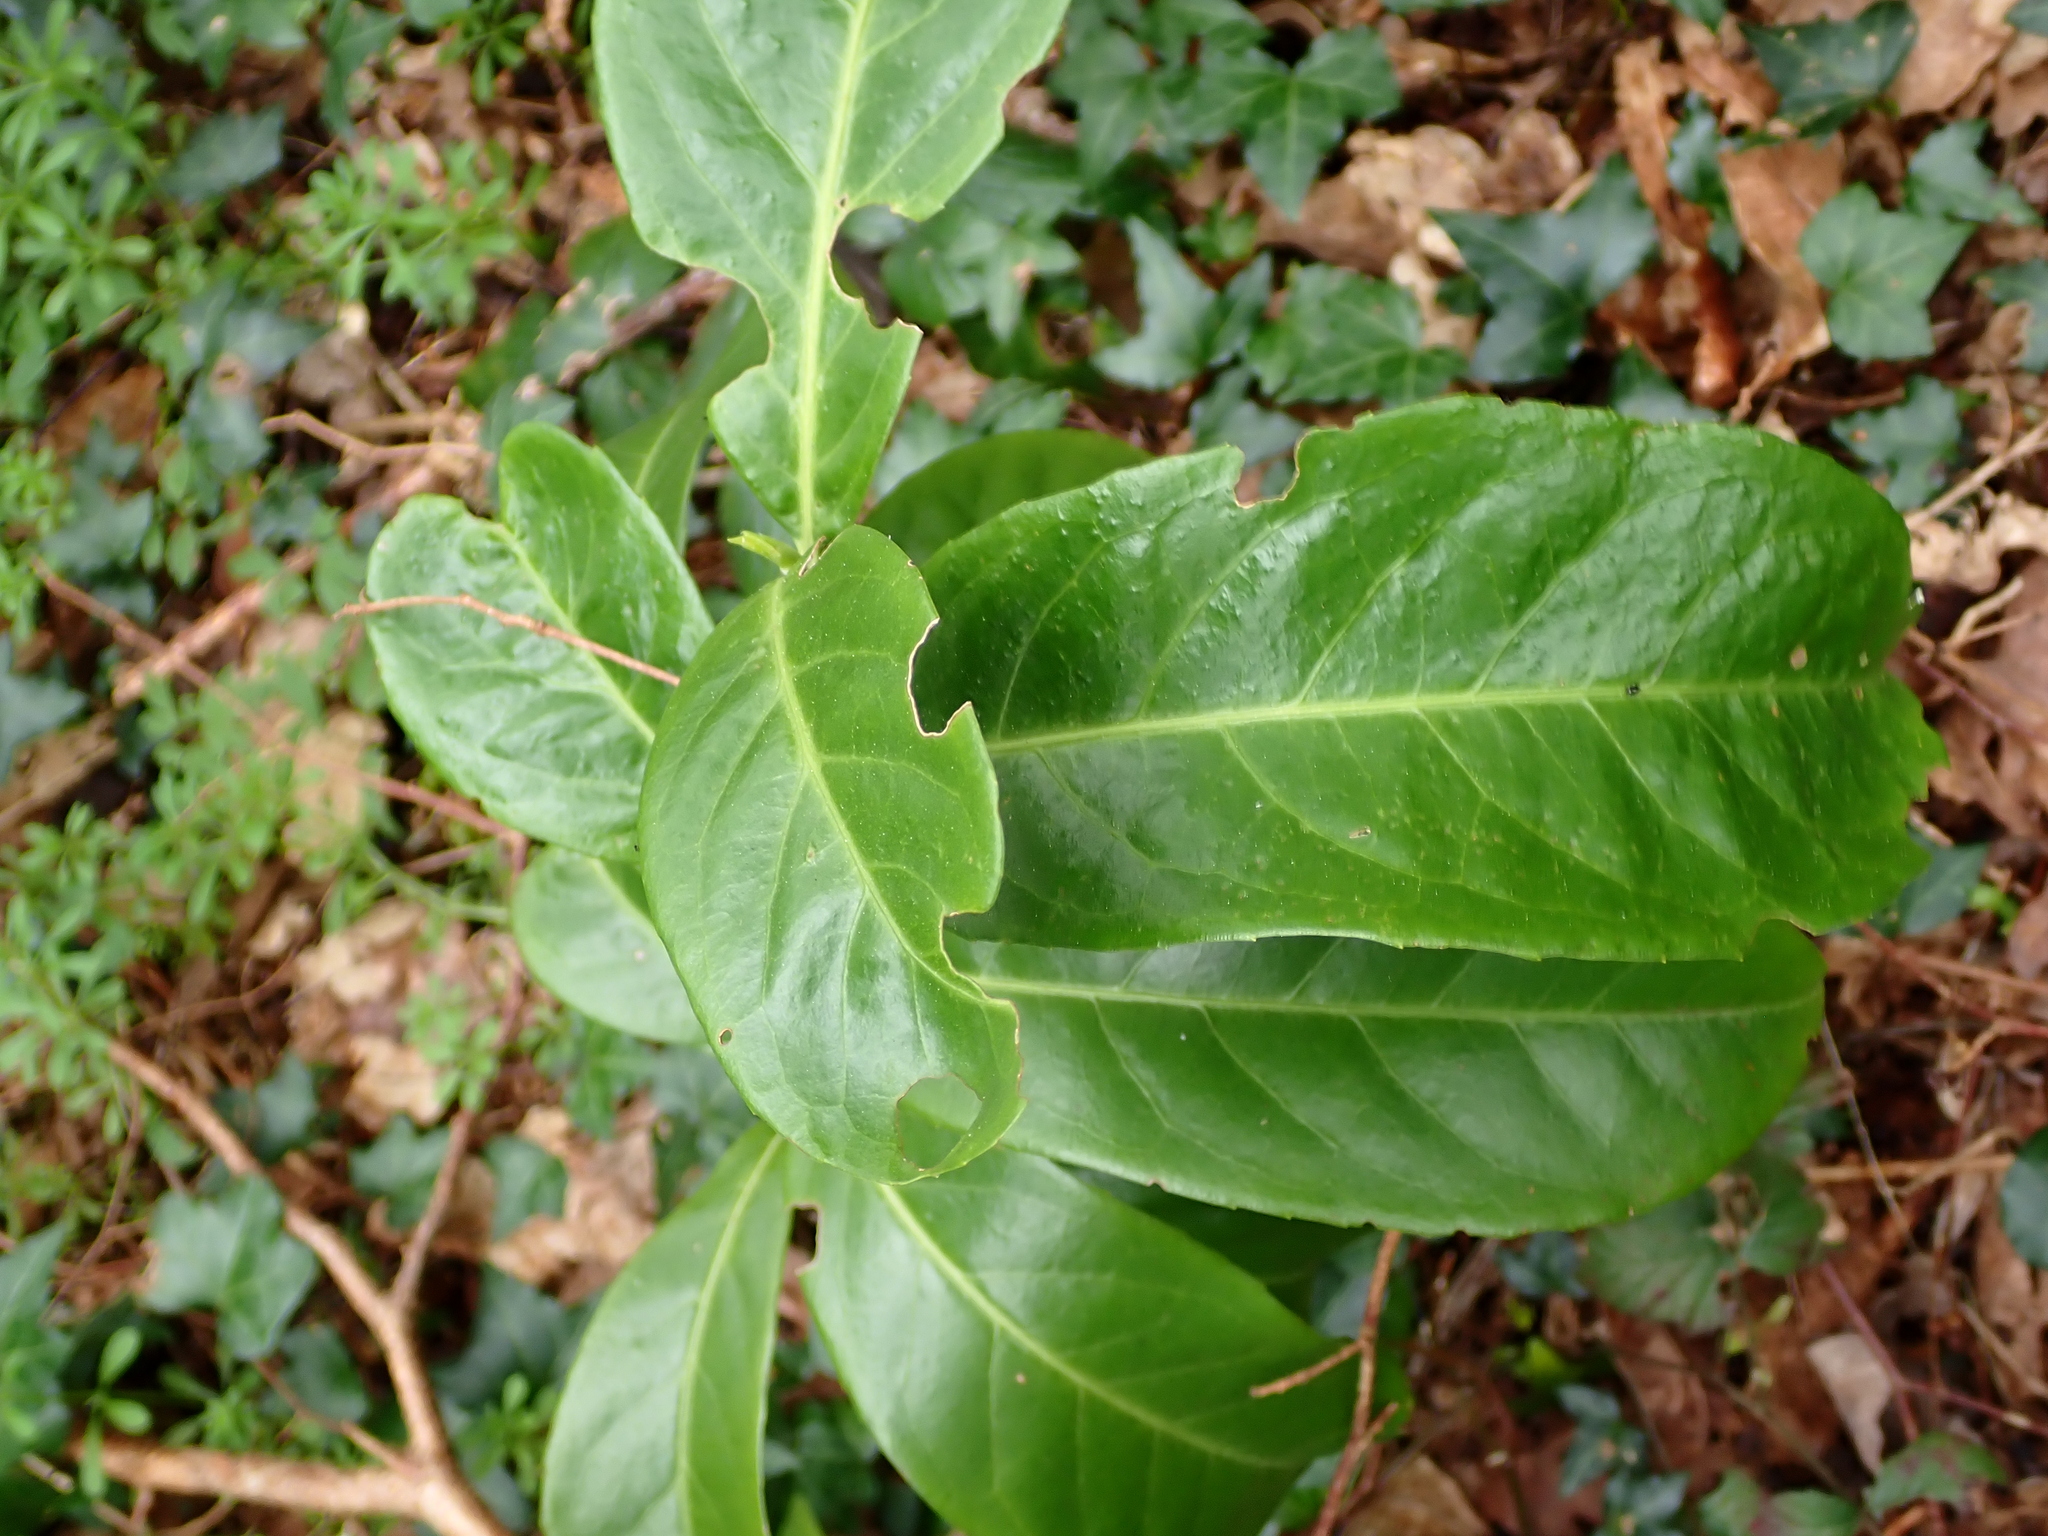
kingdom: Plantae
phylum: Tracheophyta
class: Magnoliopsida
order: Rosales
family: Rosaceae
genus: Prunus
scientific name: Prunus laurocerasus
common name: Cherry laurel
